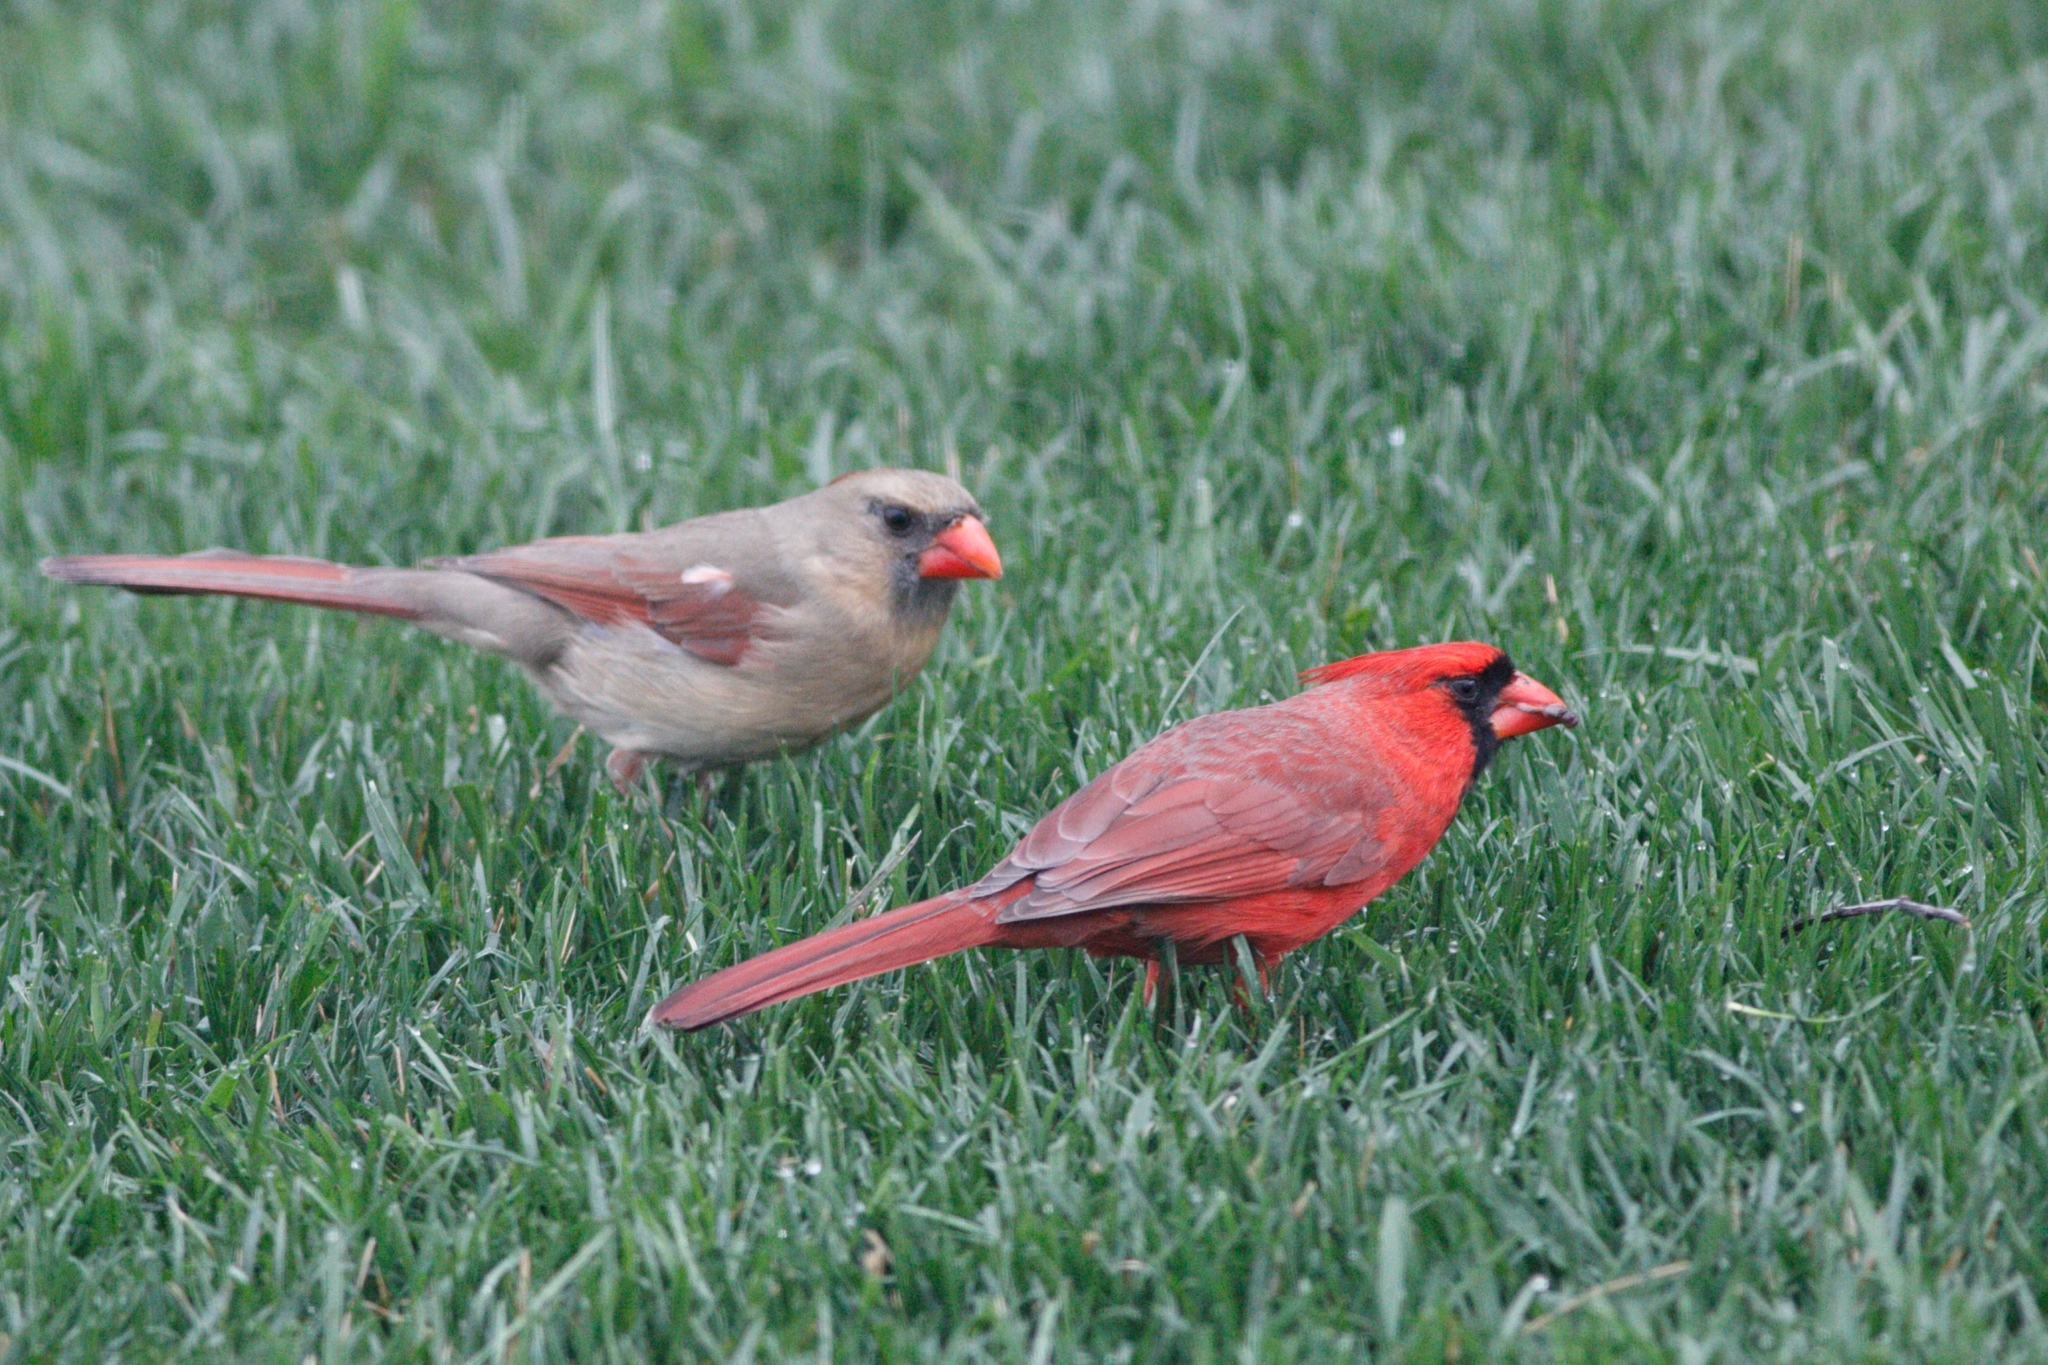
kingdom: Animalia
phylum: Chordata
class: Aves
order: Passeriformes
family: Cardinalidae
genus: Cardinalis
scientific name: Cardinalis cardinalis
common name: Northern cardinal
